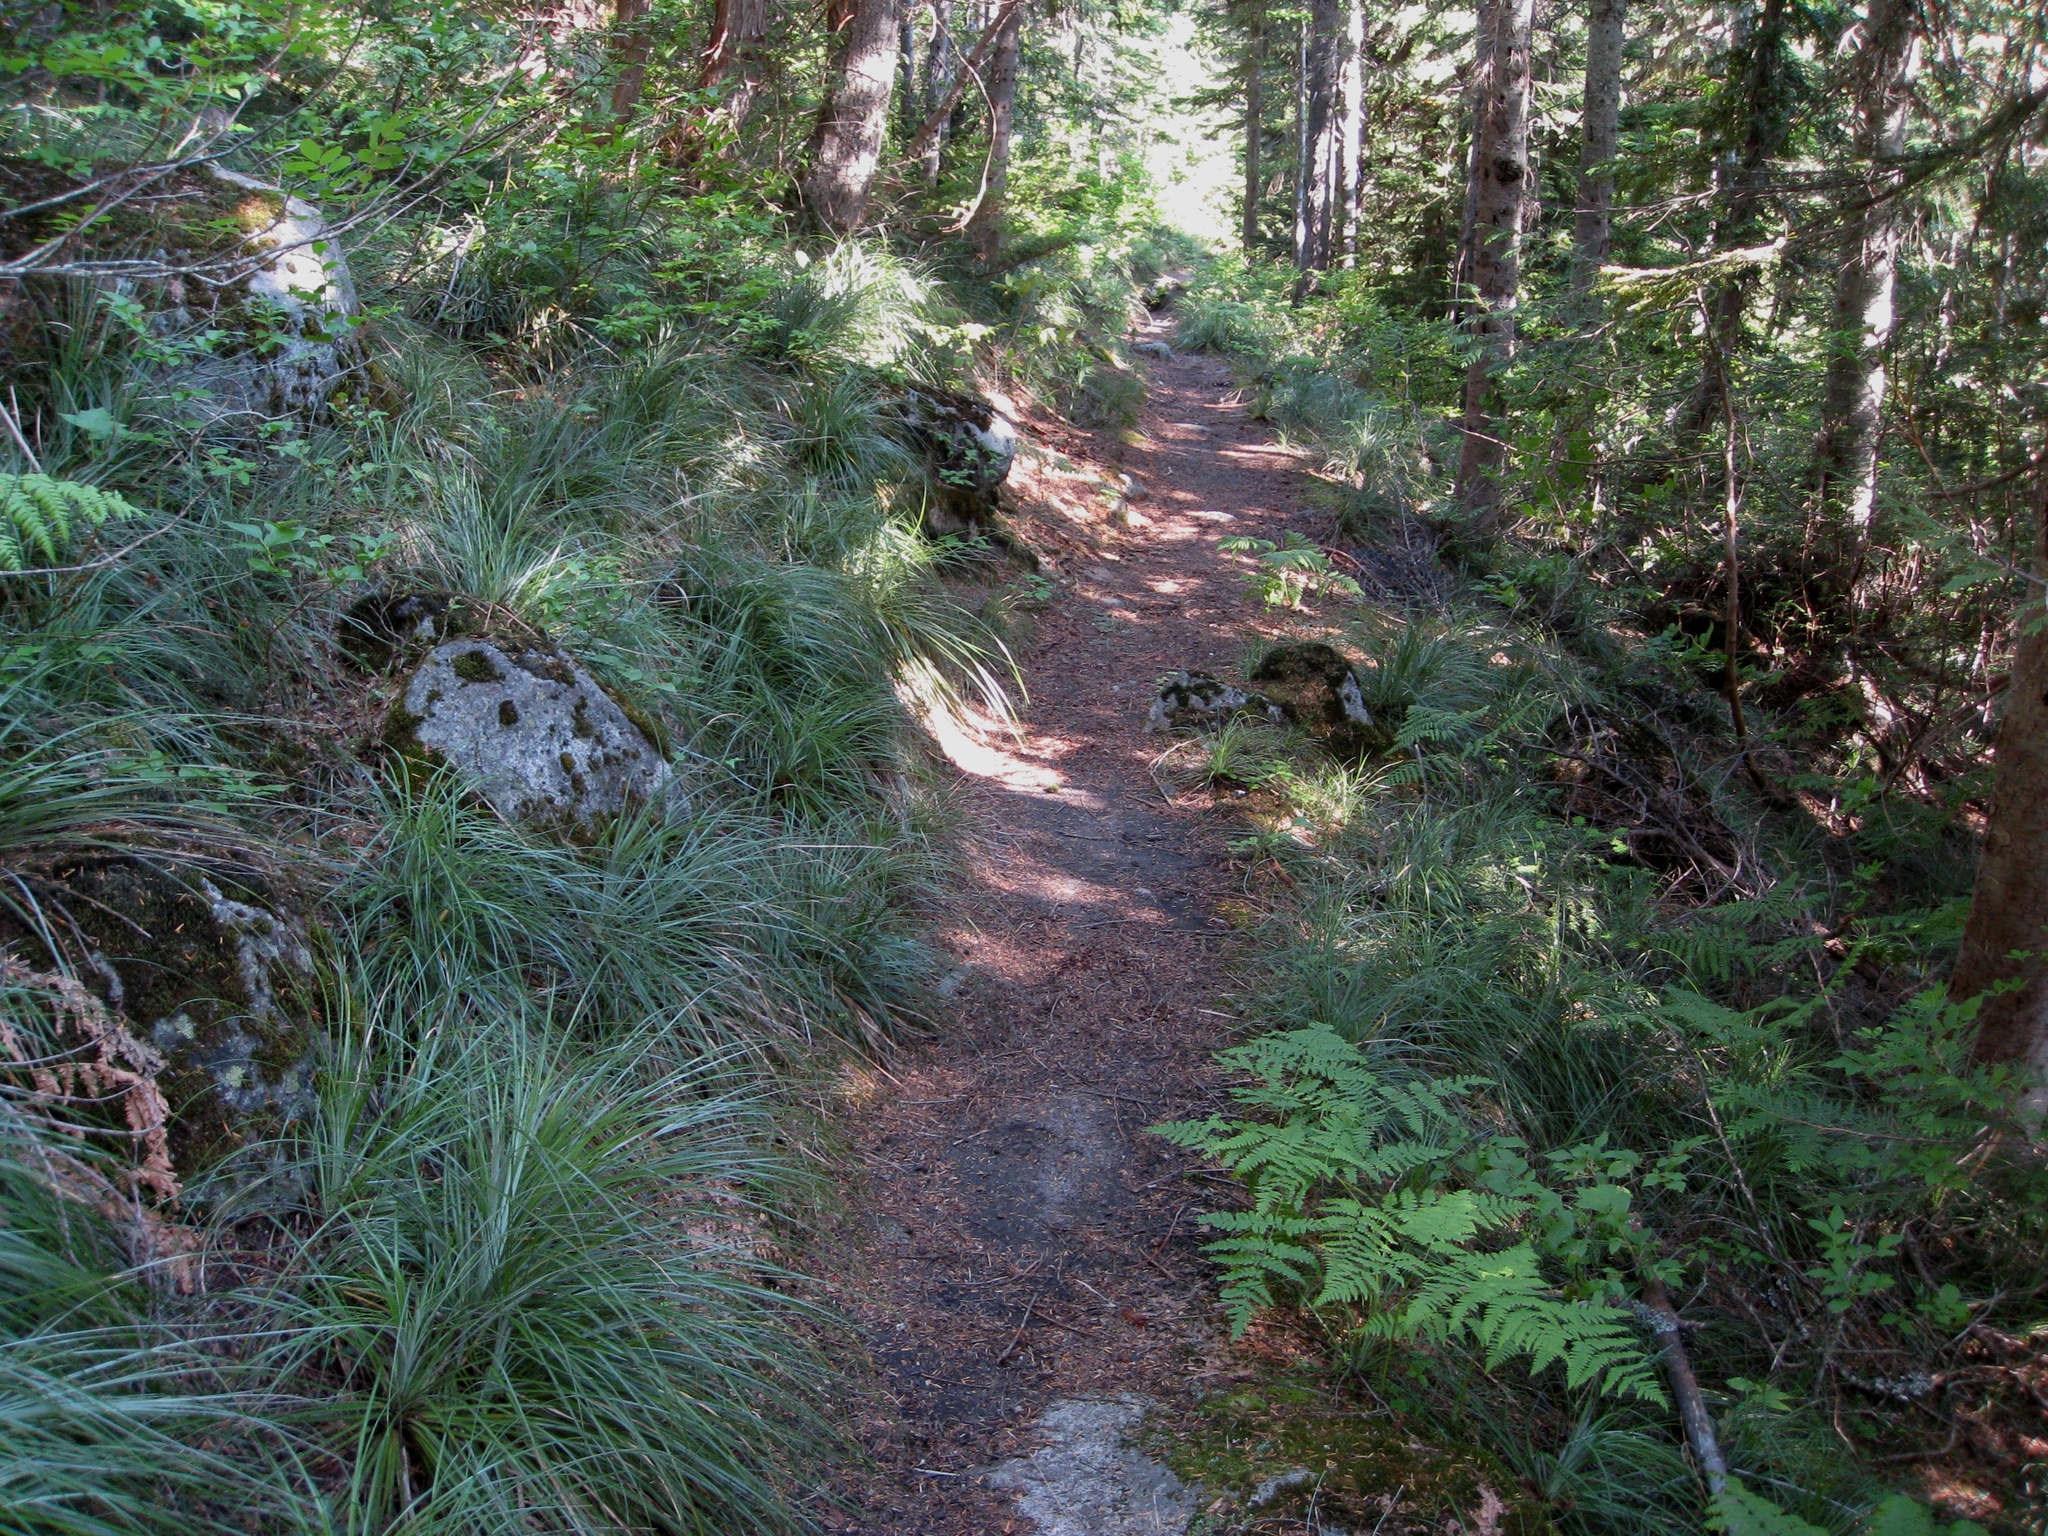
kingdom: Plantae
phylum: Tracheophyta
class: Liliopsida
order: Liliales
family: Melanthiaceae
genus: Xerophyllum
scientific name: Xerophyllum tenax
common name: Bear-grass
